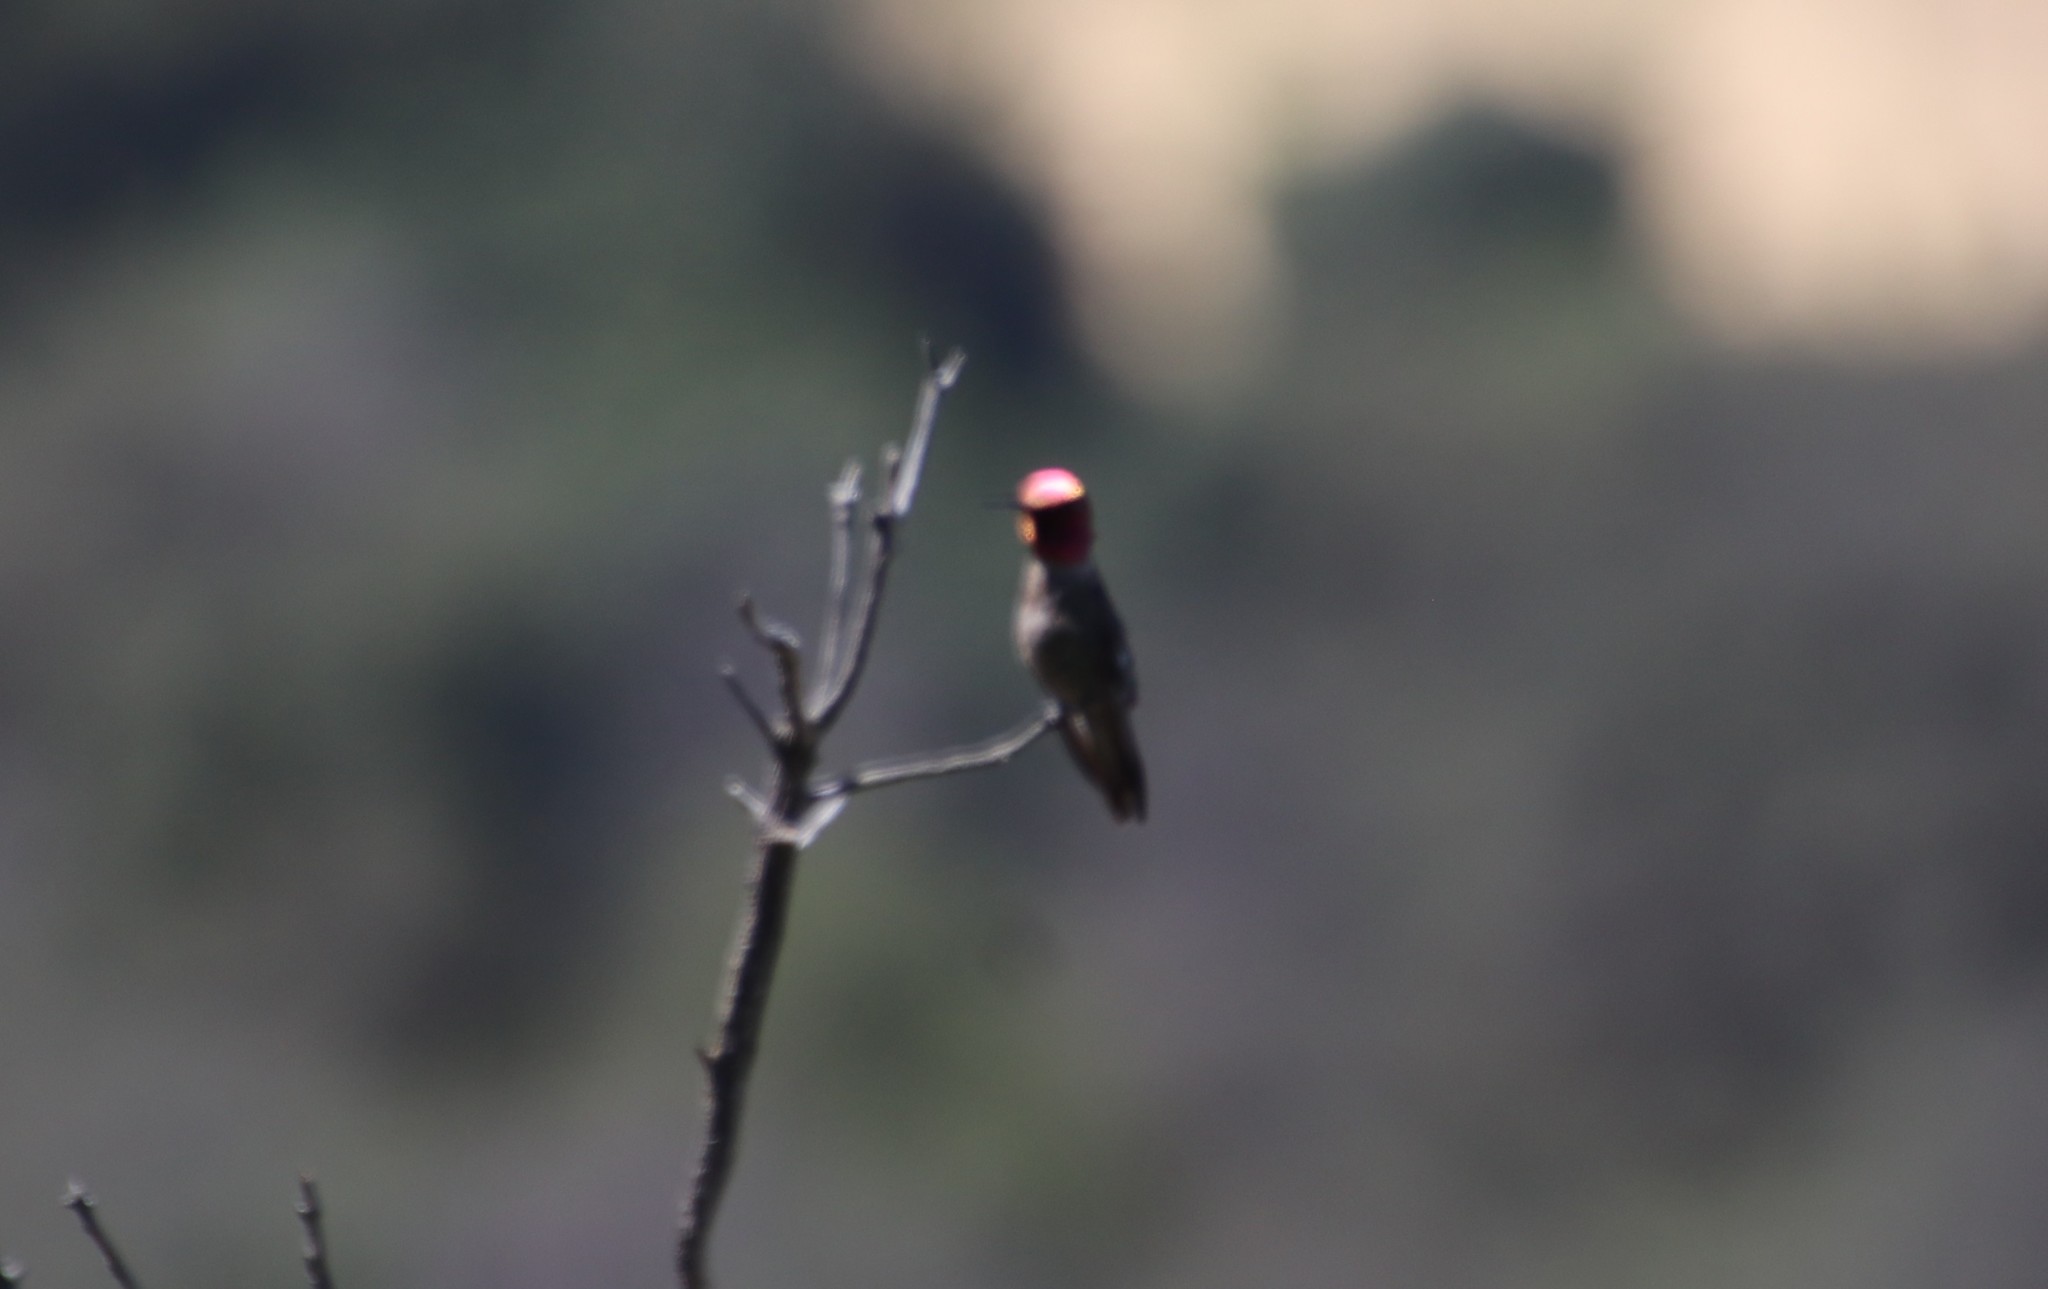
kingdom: Animalia
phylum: Chordata
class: Aves
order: Apodiformes
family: Trochilidae
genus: Calypte
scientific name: Calypte anna
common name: Anna's hummingbird
